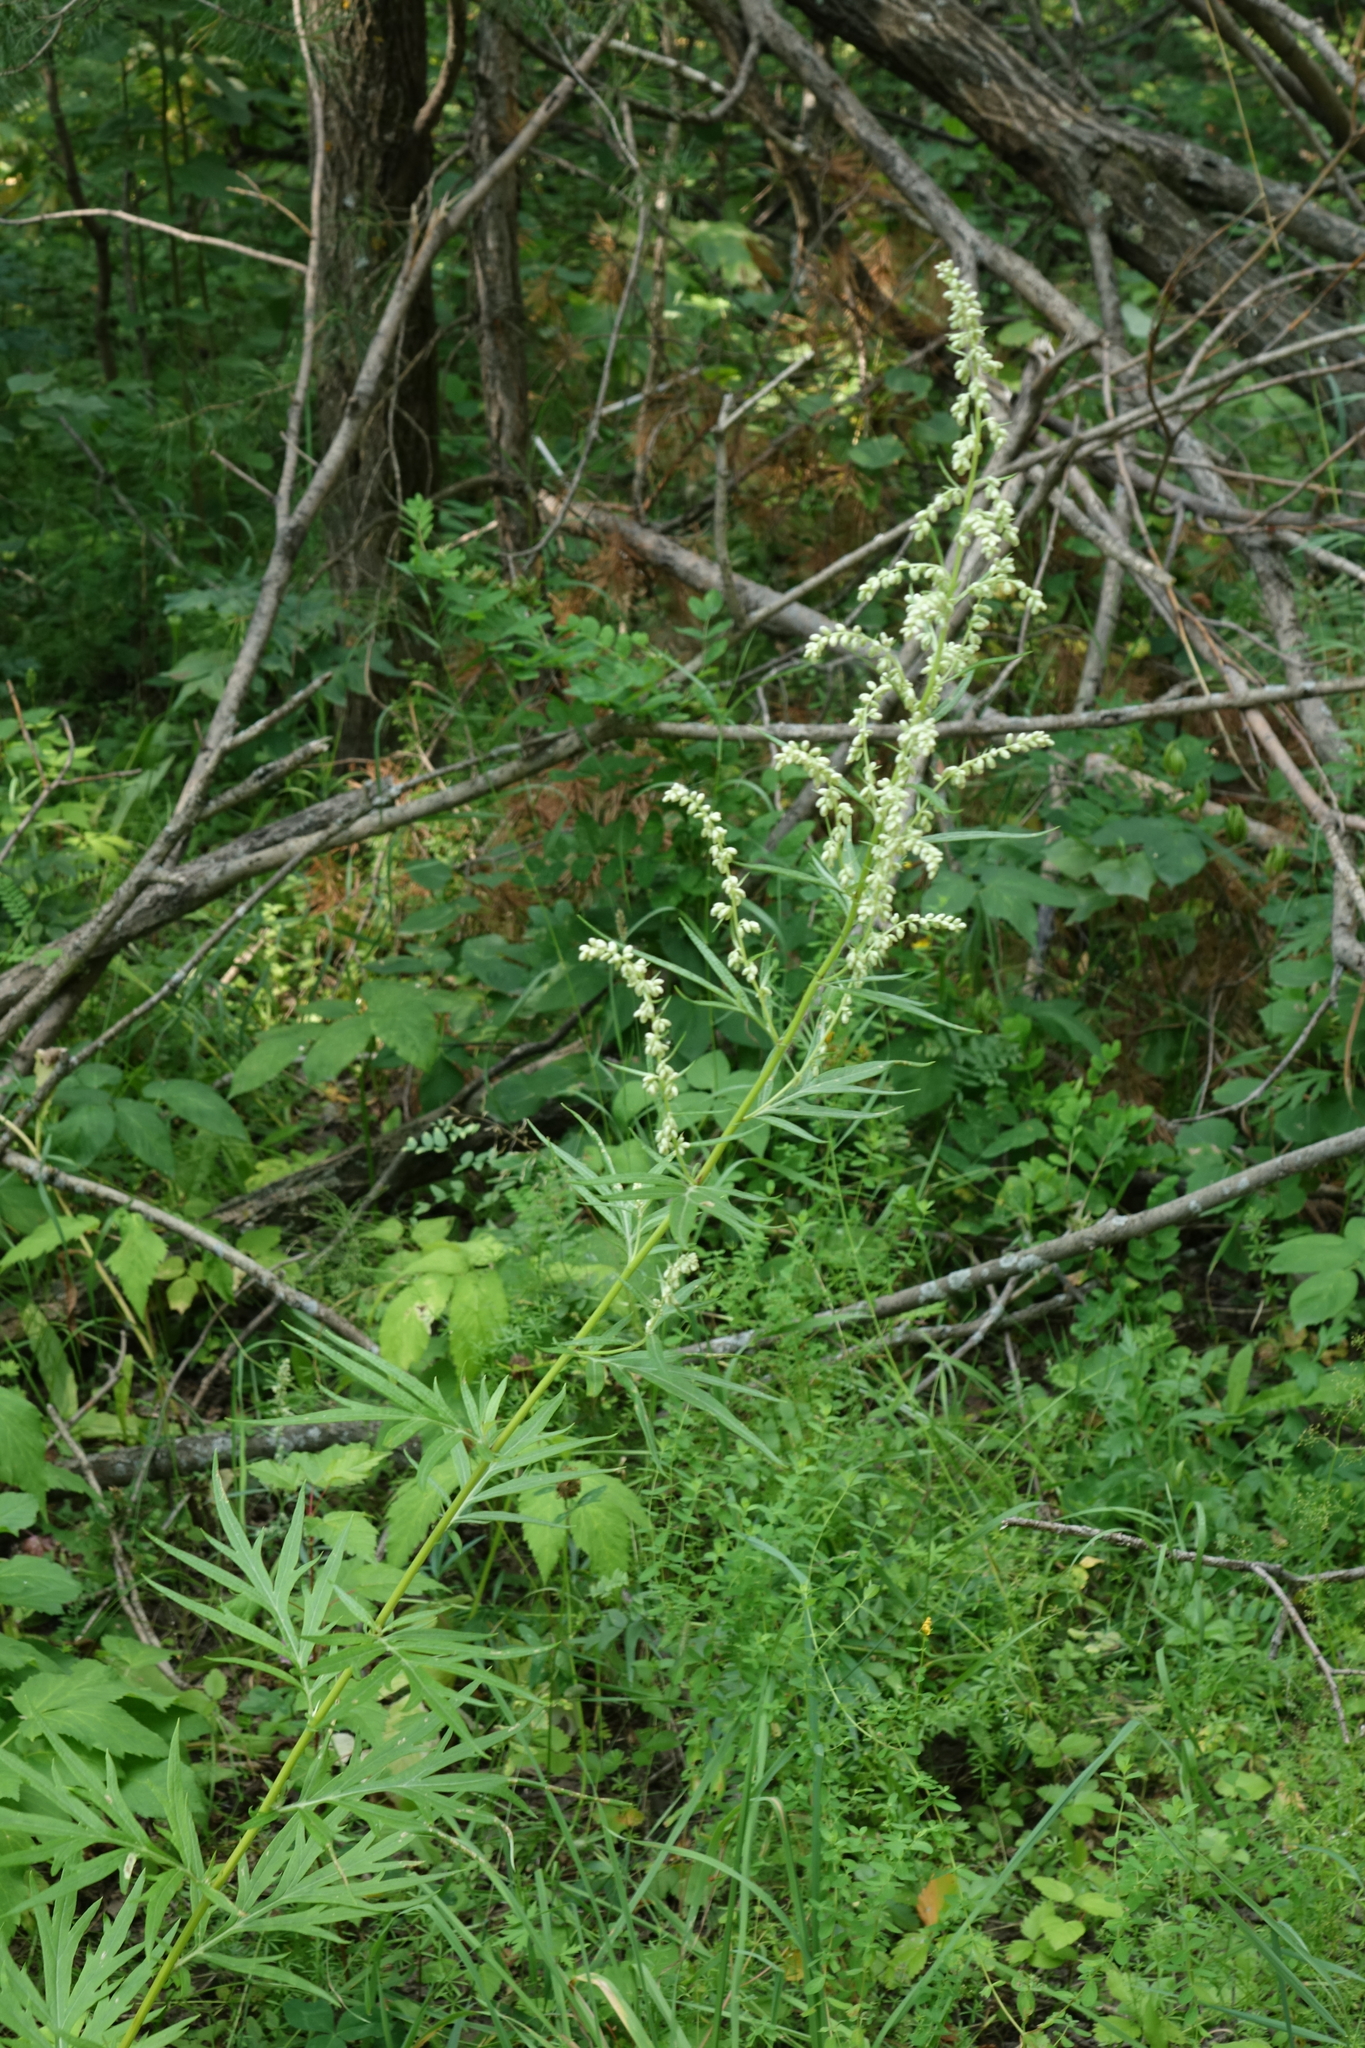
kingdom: Plantae
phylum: Tracheophyta
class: Magnoliopsida
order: Asterales
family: Asteraceae
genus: Artemisia
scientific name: Artemisia vulgaris
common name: Mugwort
